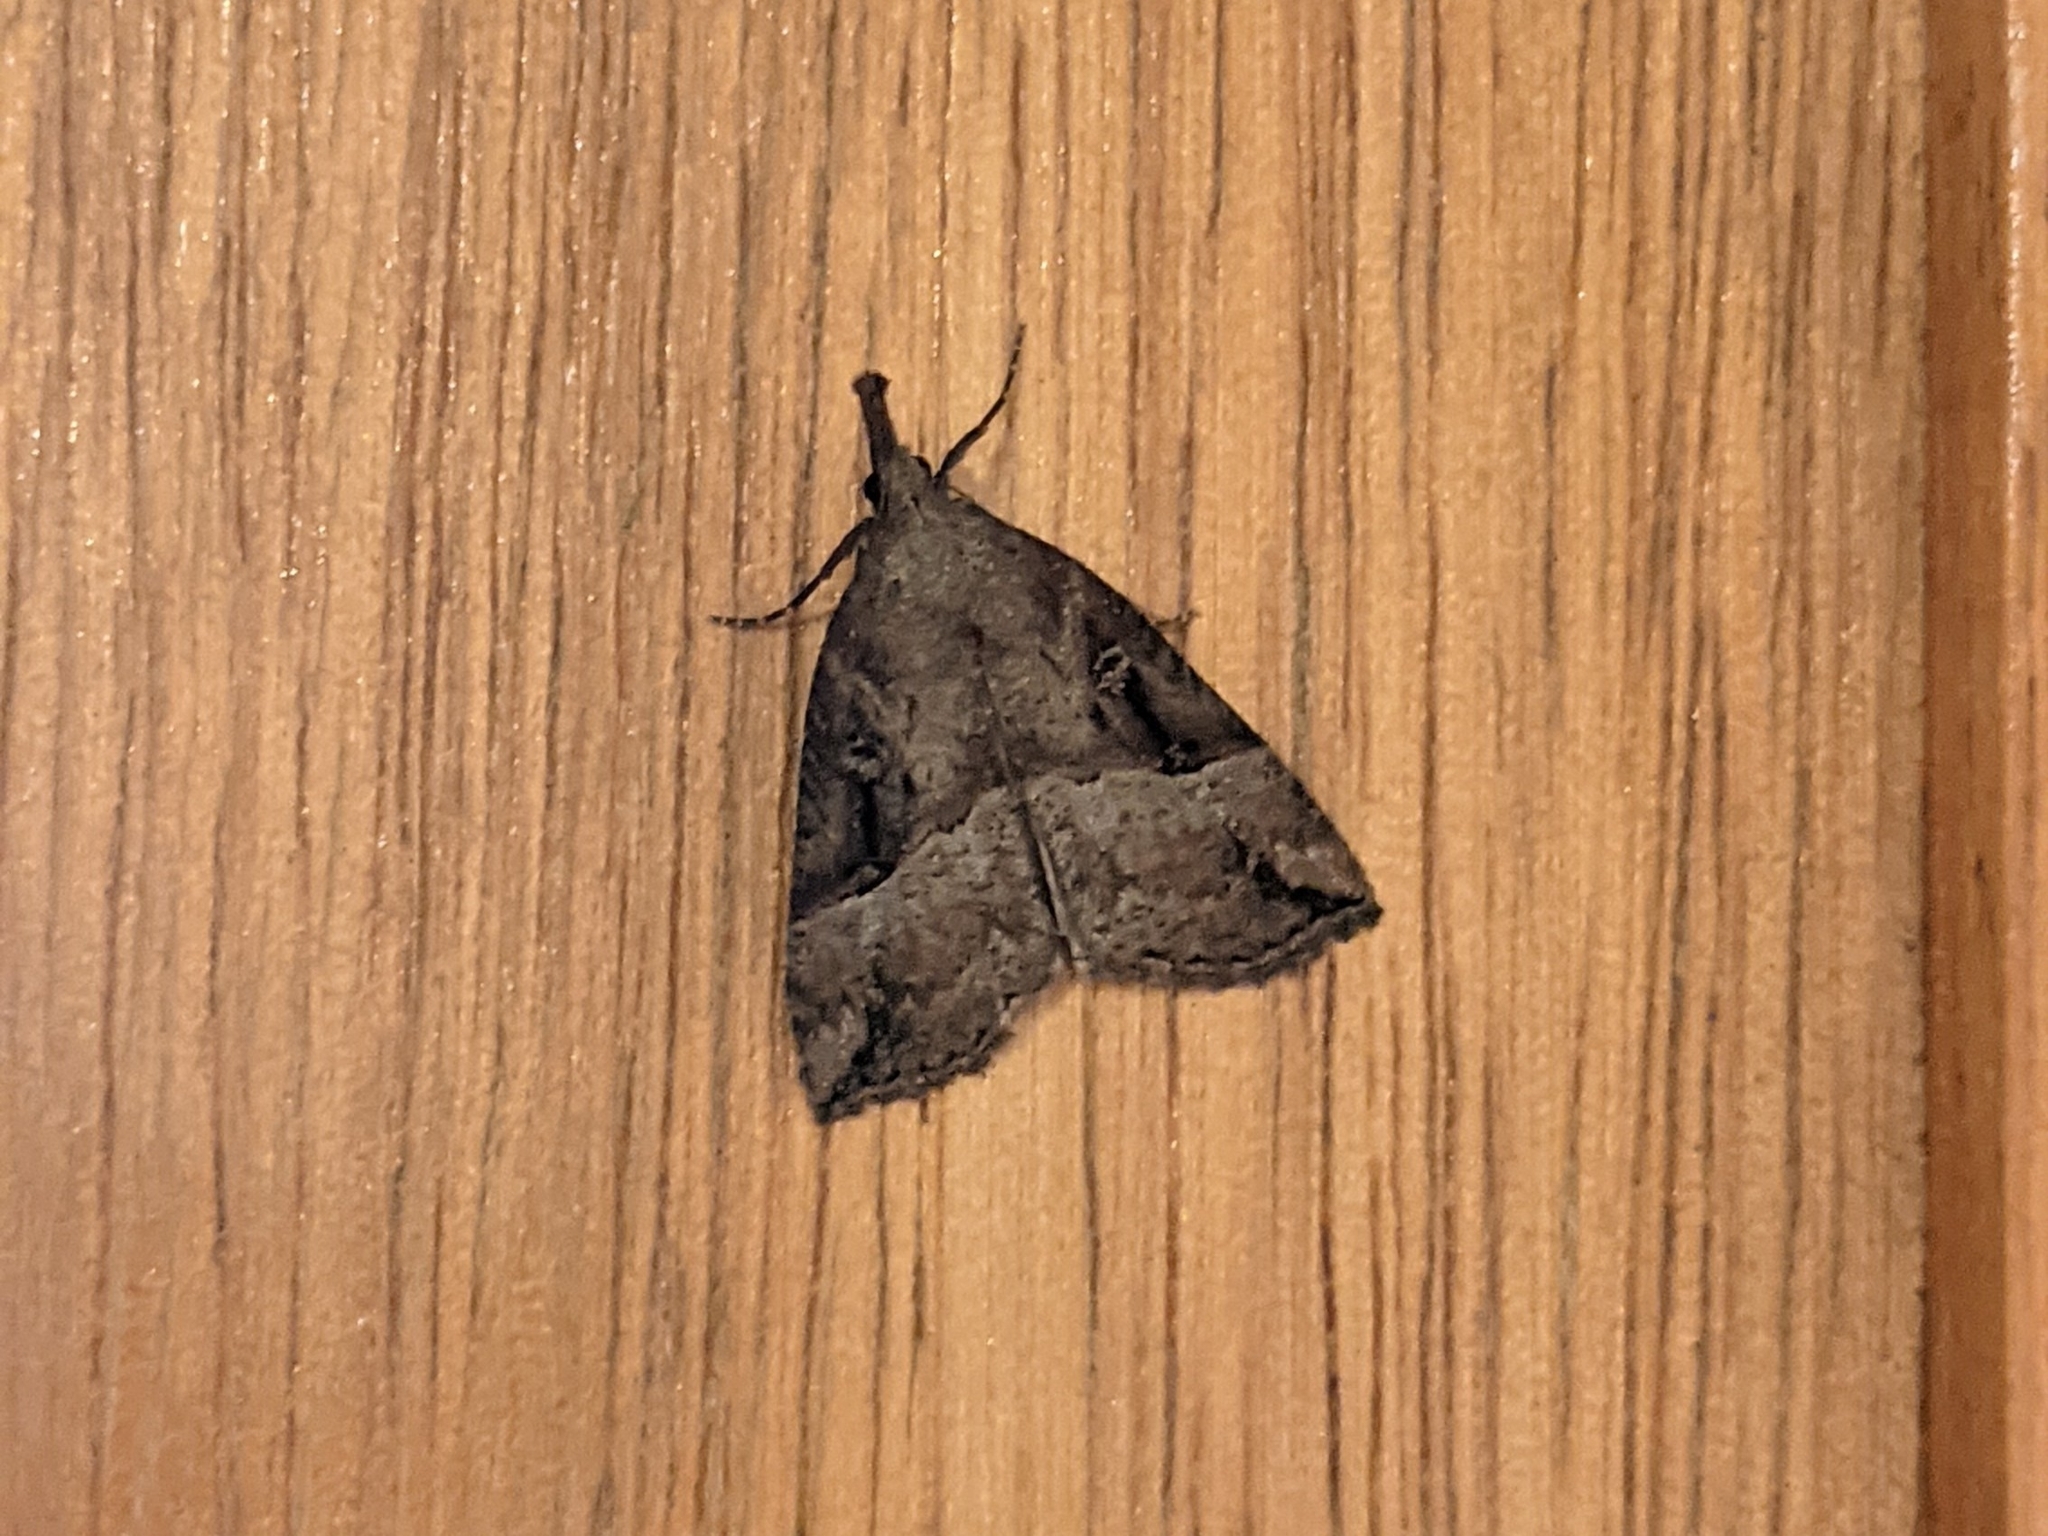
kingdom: Animalia
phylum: Arthropoda
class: Insecta
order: Lepidoptera
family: Erebidae
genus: Hypena
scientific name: Hypena rostralis
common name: Buttoned snout
